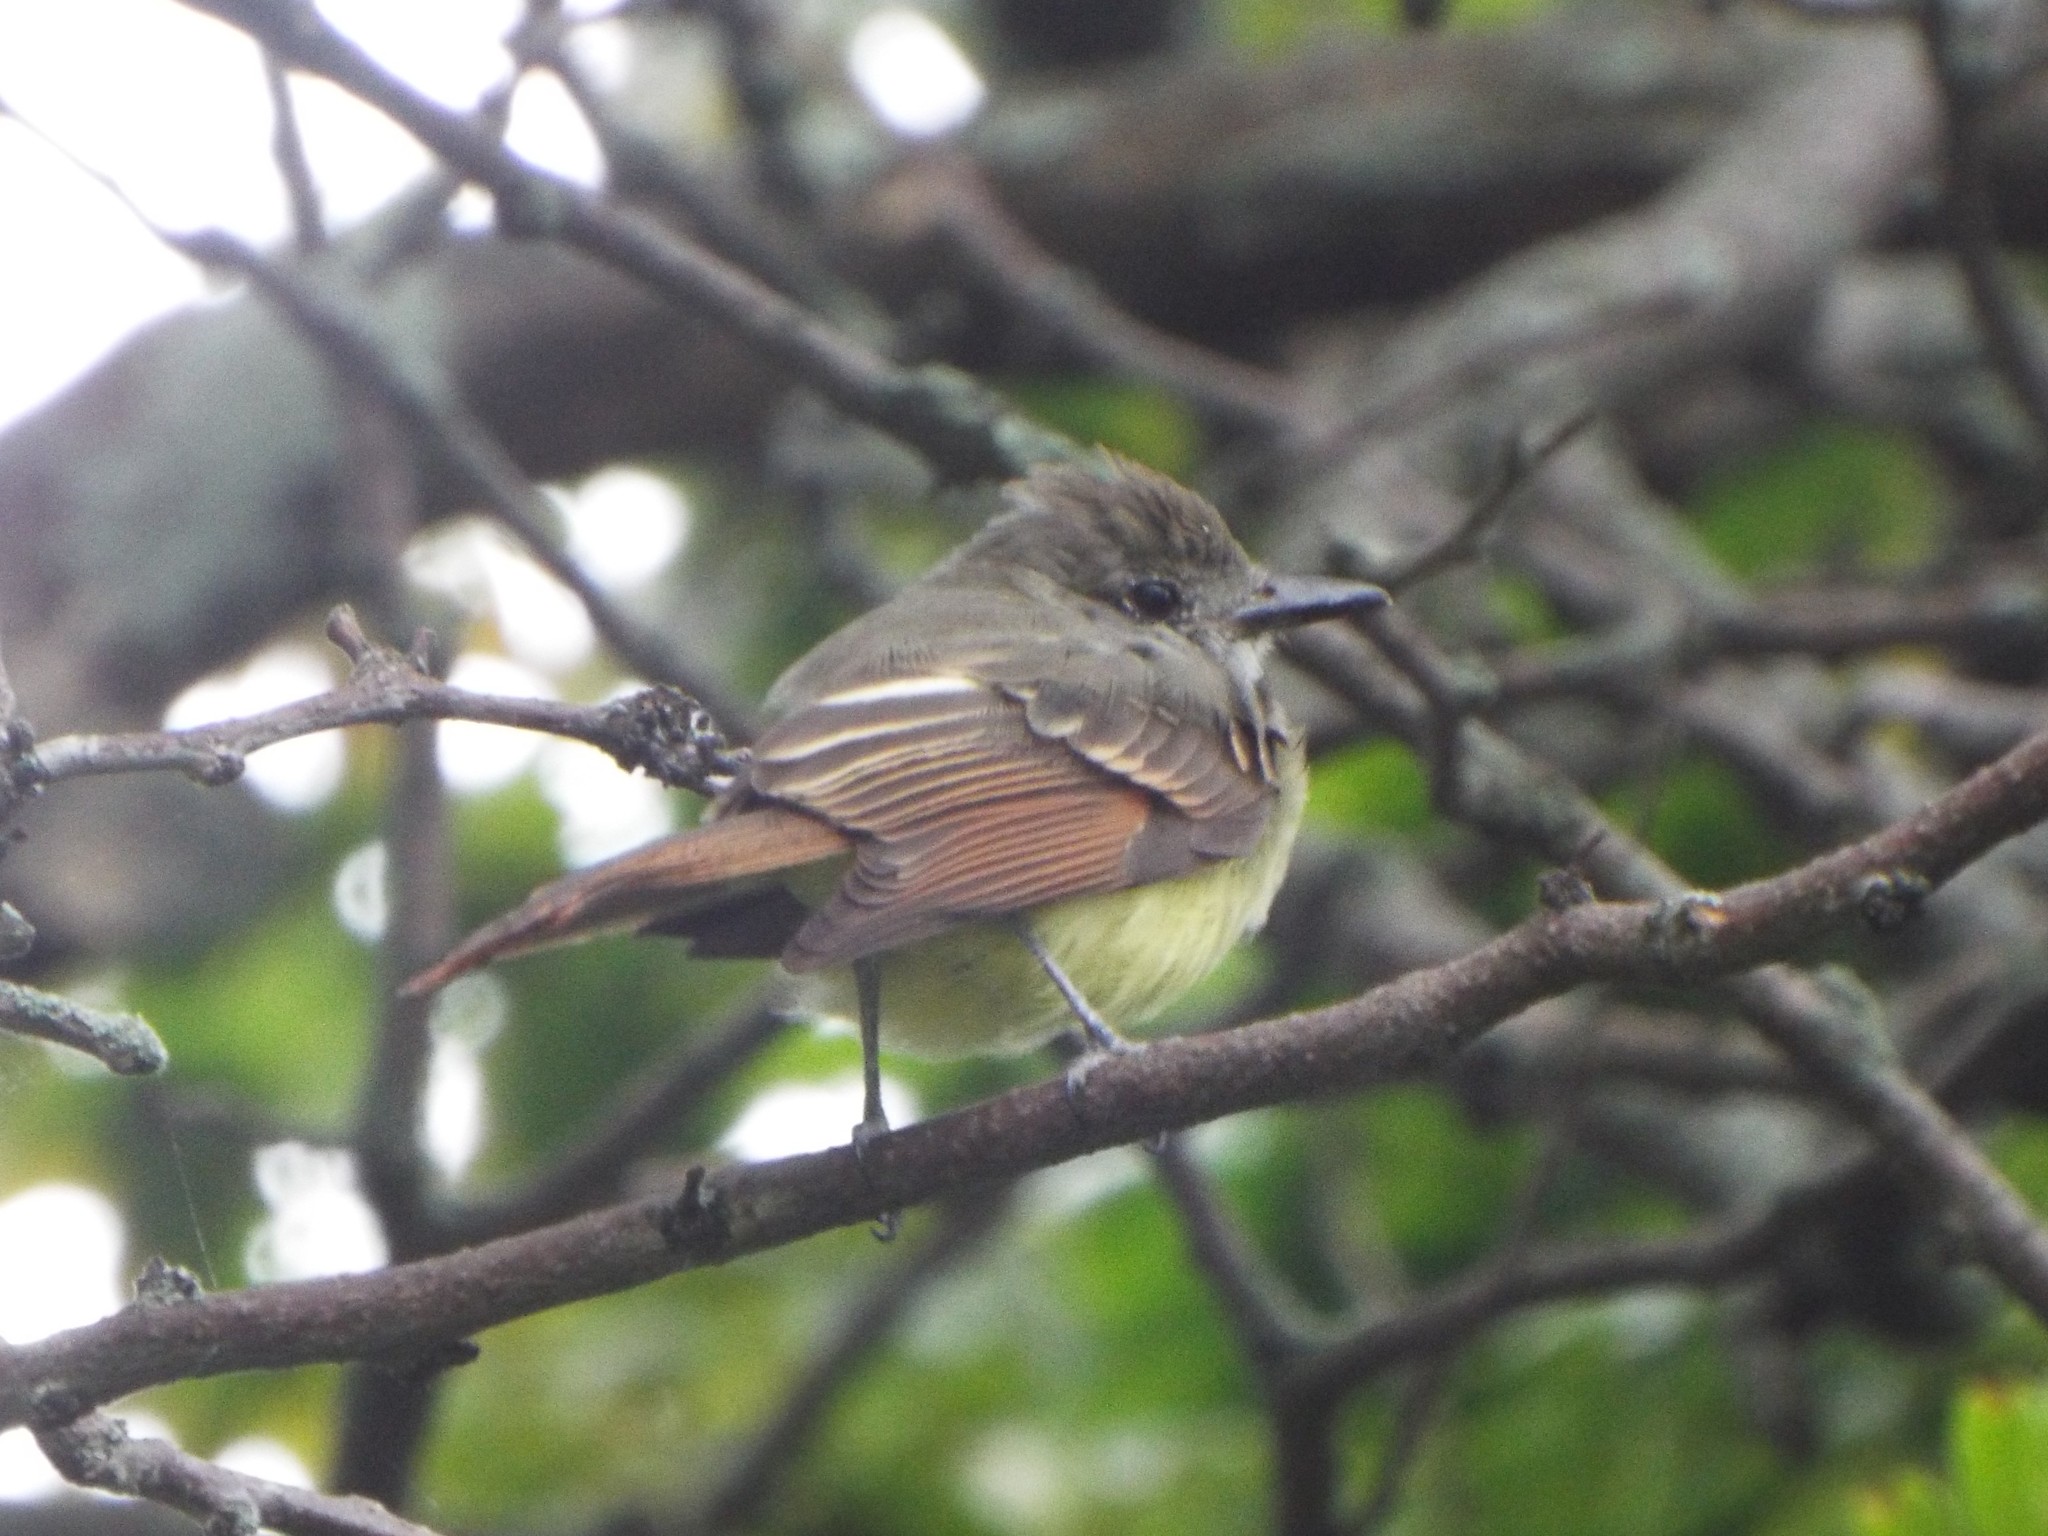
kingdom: Animalia
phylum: Chordata
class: Aves
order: Passeriformes
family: Tyrannidae
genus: Myiarchus
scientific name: Myiarchus crinitus
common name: Great crested flycatcher
